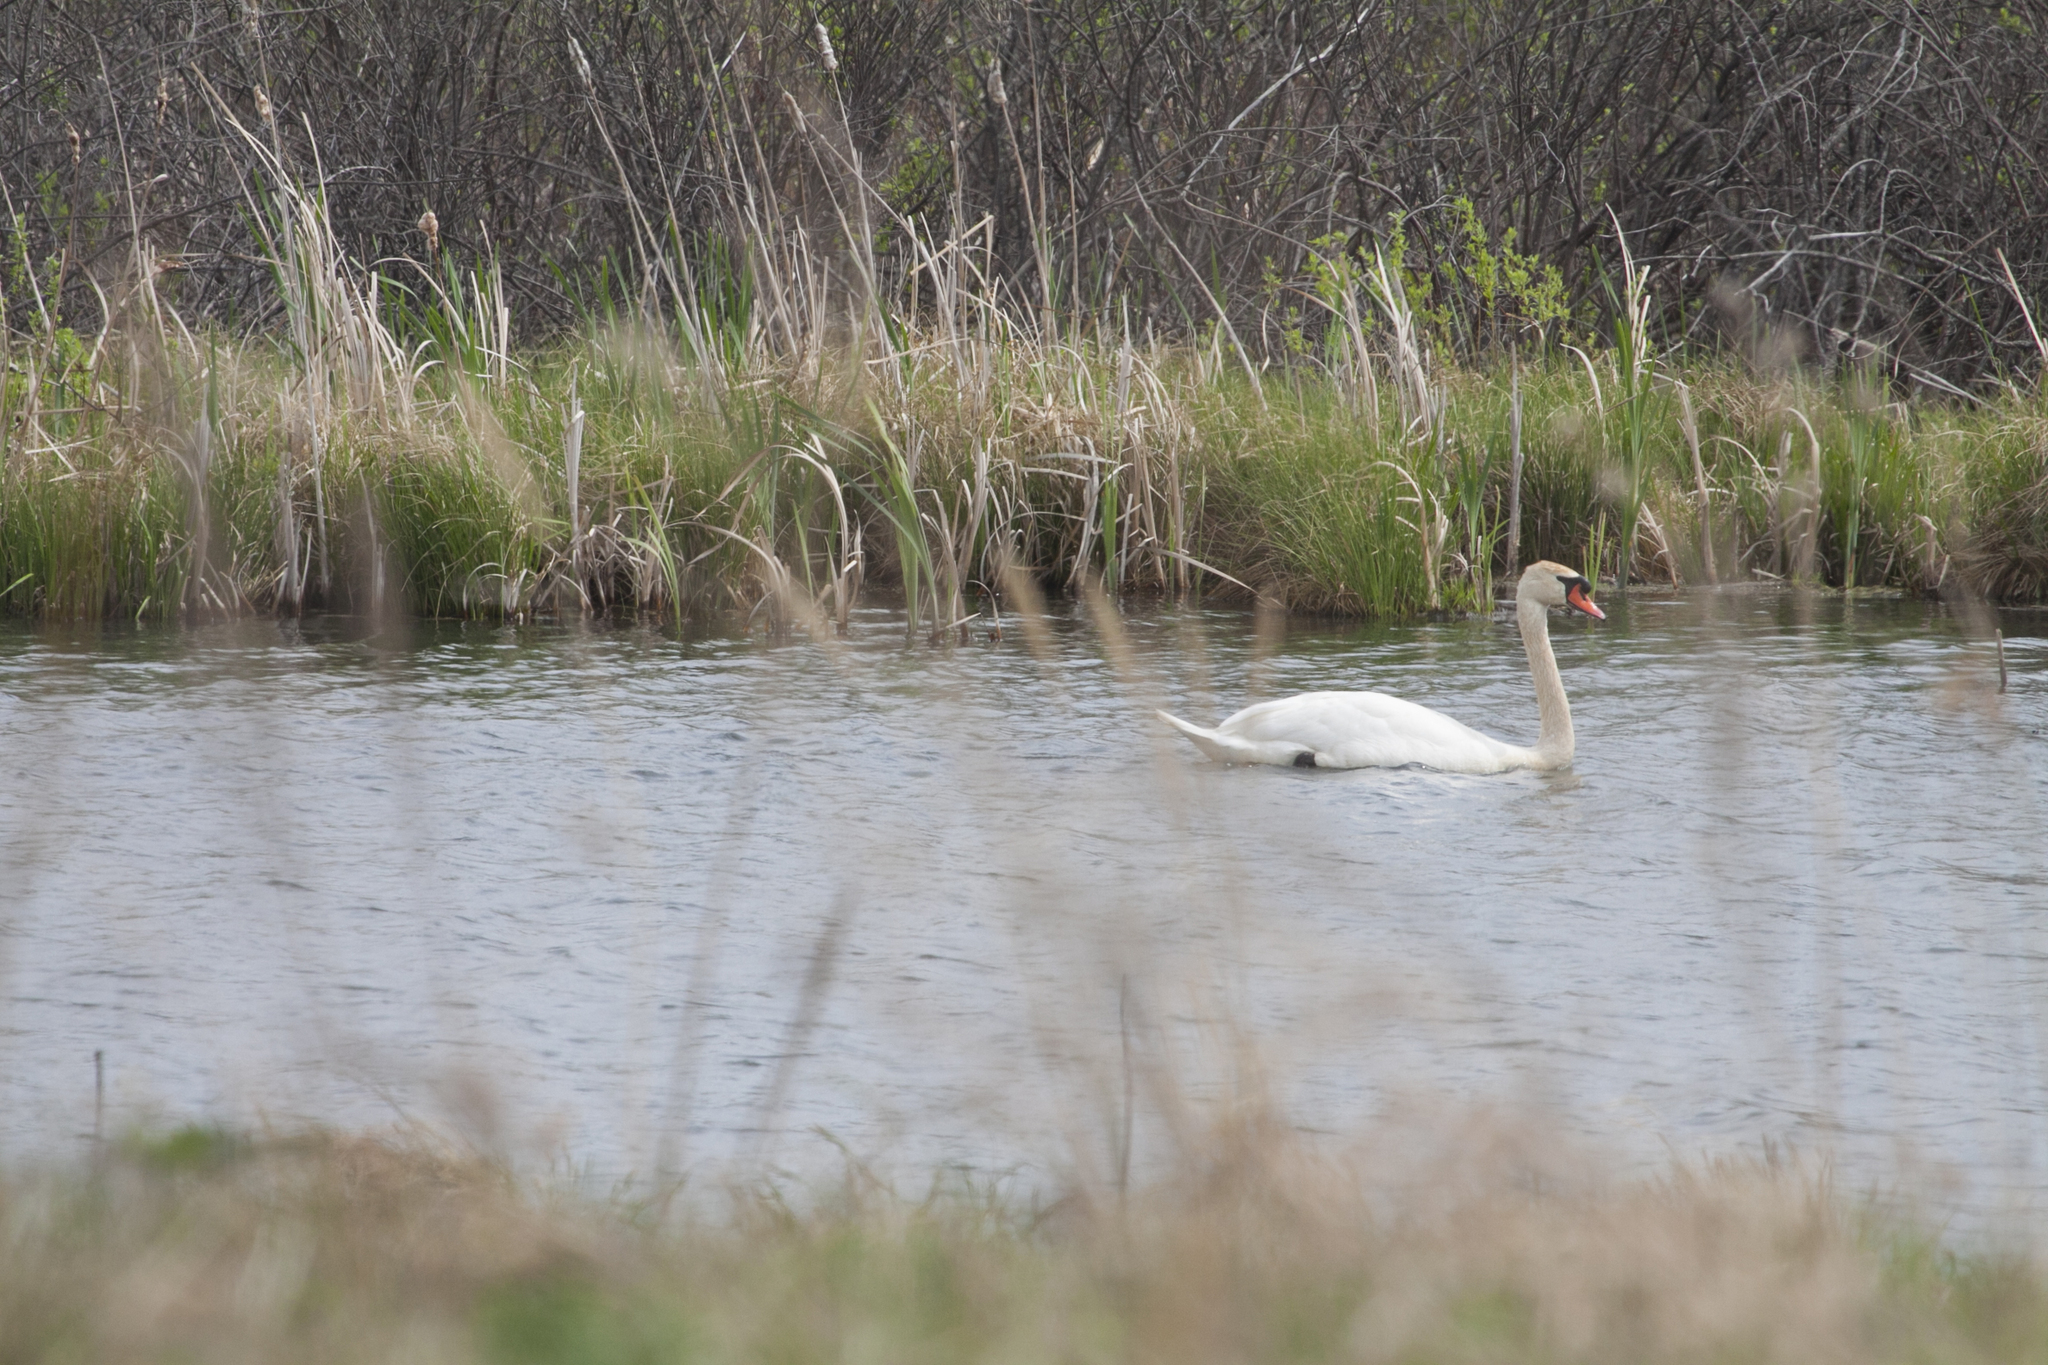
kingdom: Animalia
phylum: Chordata
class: Aves
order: Anseriformes
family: Anatidae
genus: Cygnus
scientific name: Cygnus olor
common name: Mute swan
